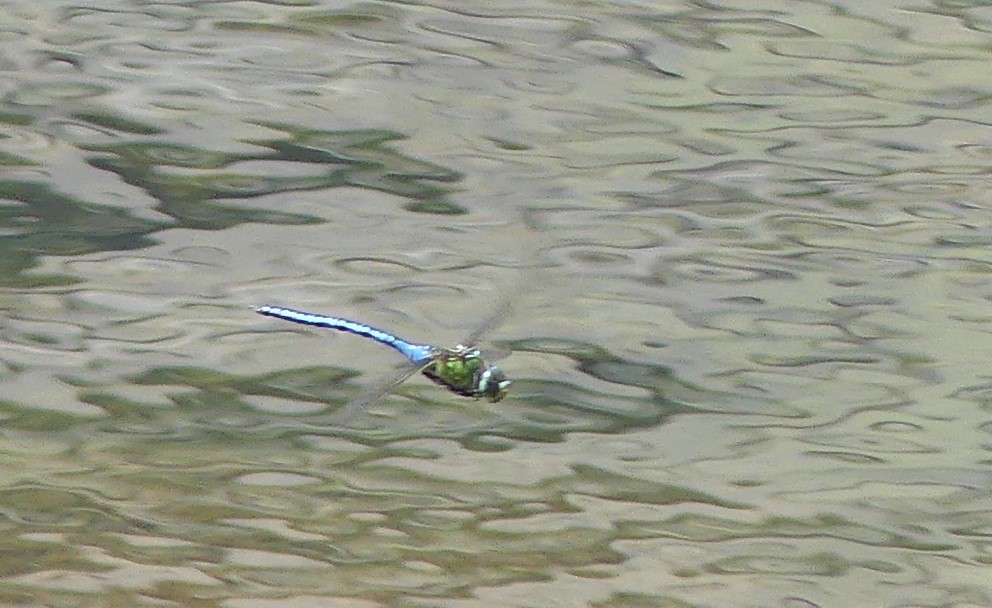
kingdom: Animalia
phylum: Arthropoda
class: Insecta
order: Odonata
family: Aeshnidae
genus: Anax
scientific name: Anax imperator
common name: Emperor dragonfly
